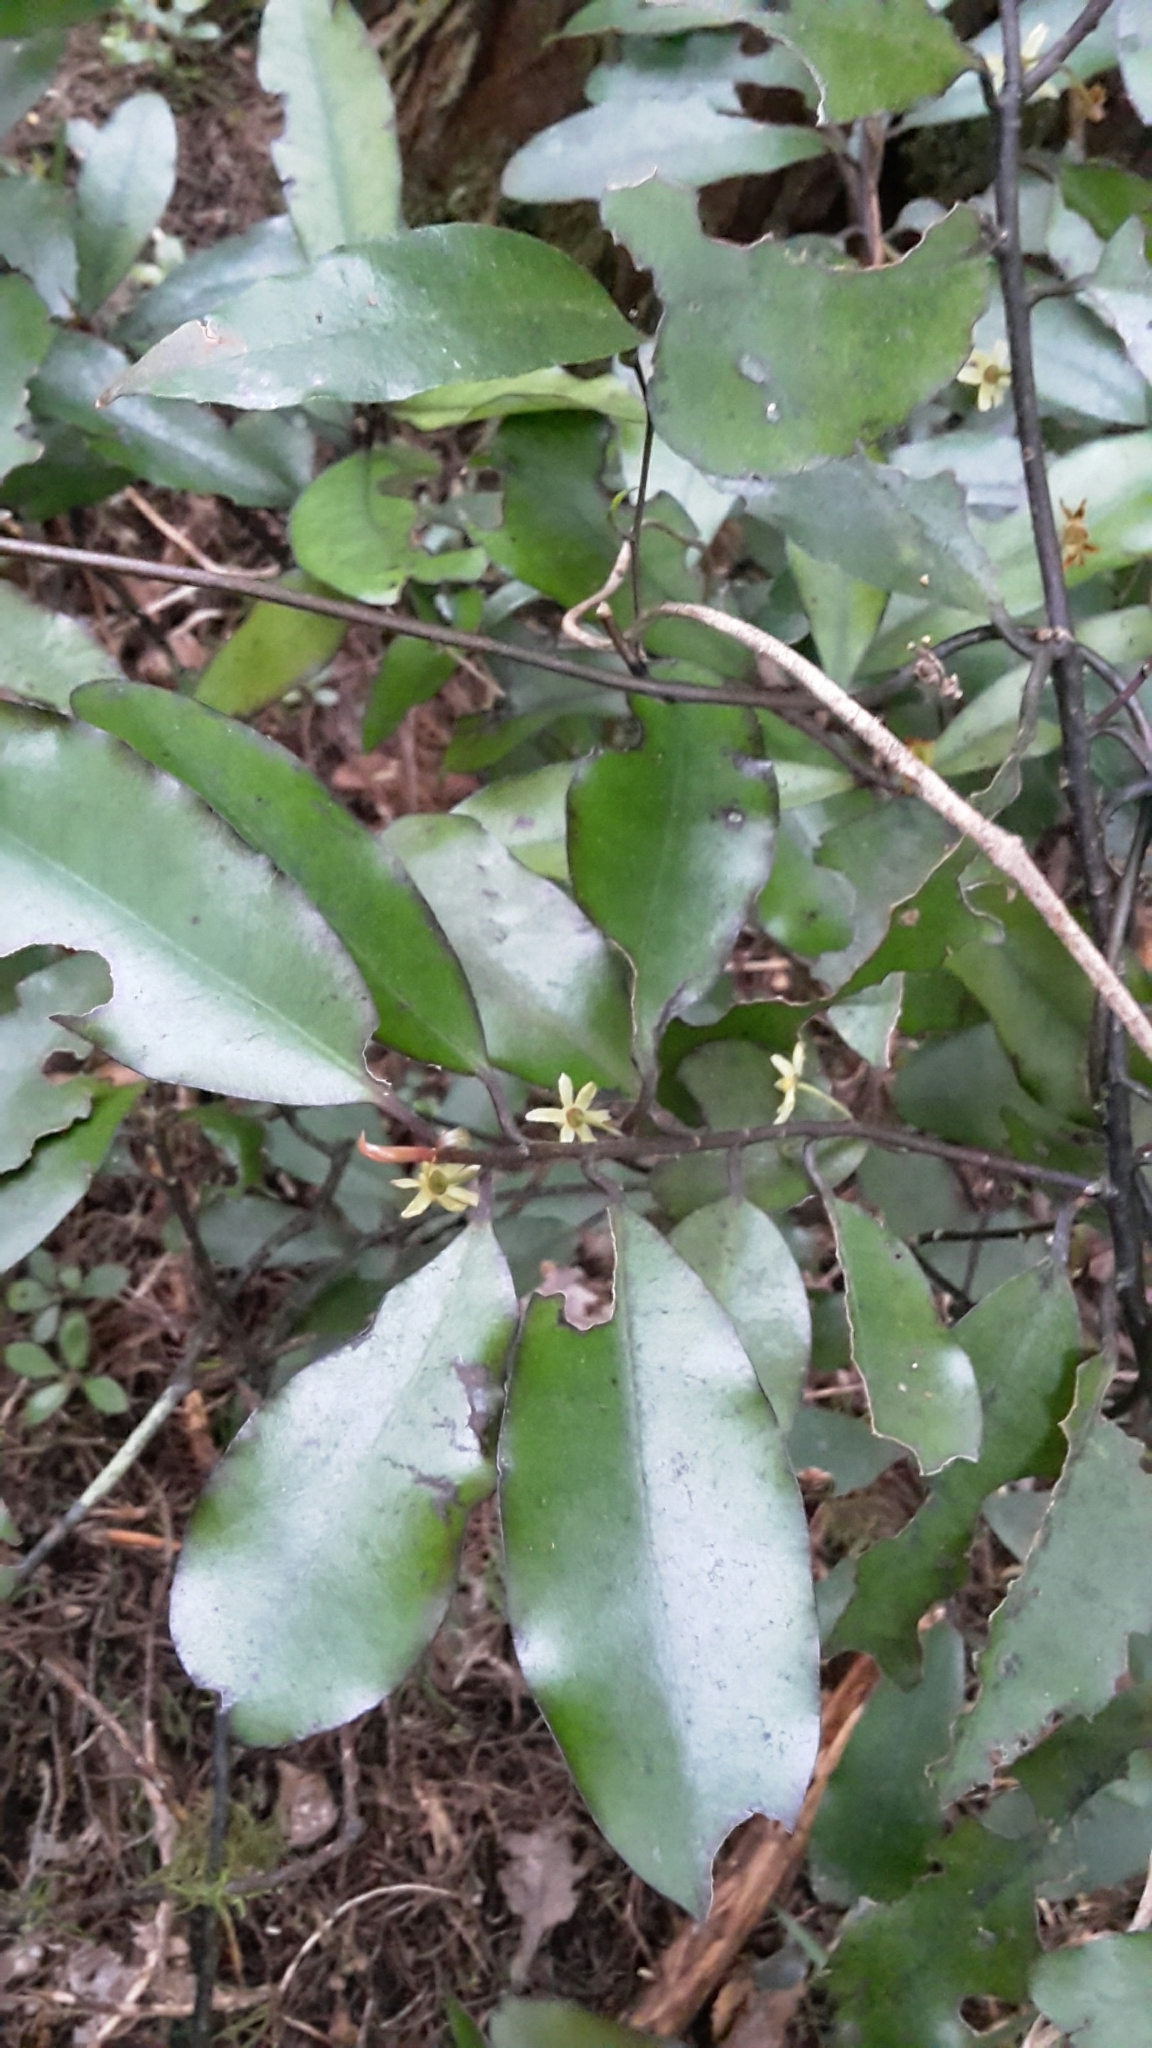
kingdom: Plantae
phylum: Tracheophyta
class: Magnoliopsida
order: Canellales
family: Winteraceae
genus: Pseudowintera
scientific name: Pseudowintera colorata
